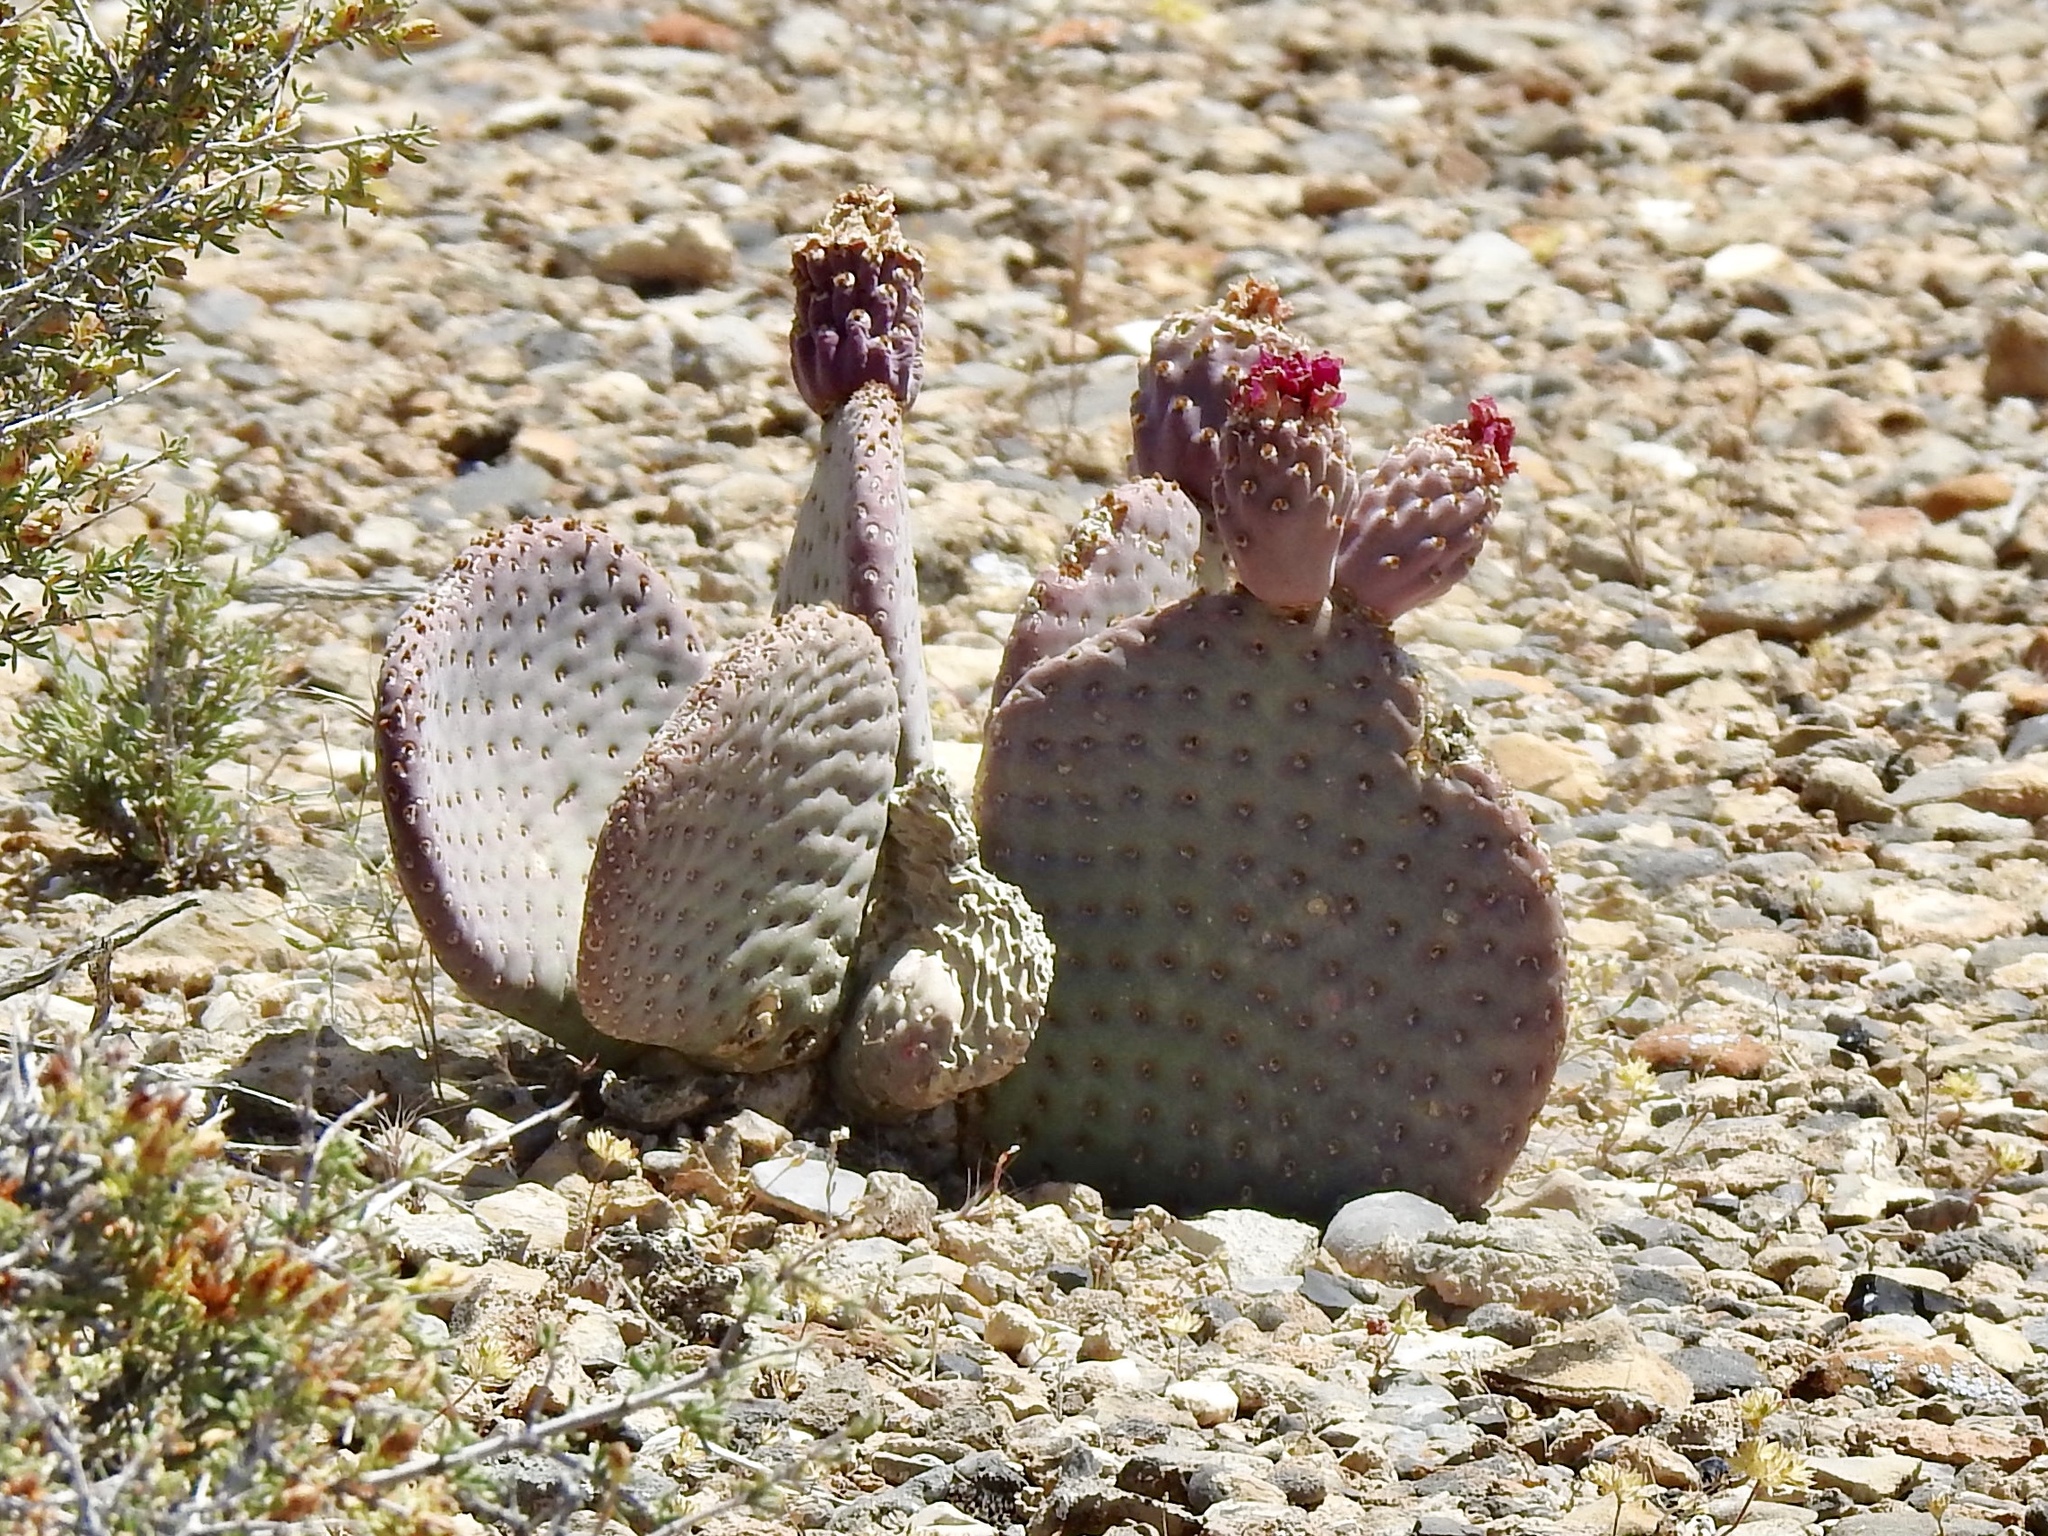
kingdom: Plantae
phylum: Tracheophyta
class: Magnoliopsida
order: Caryophyllales
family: Cactaceae
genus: Opuntia
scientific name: Opuntia basilaris
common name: Beavertail prickly-pear
